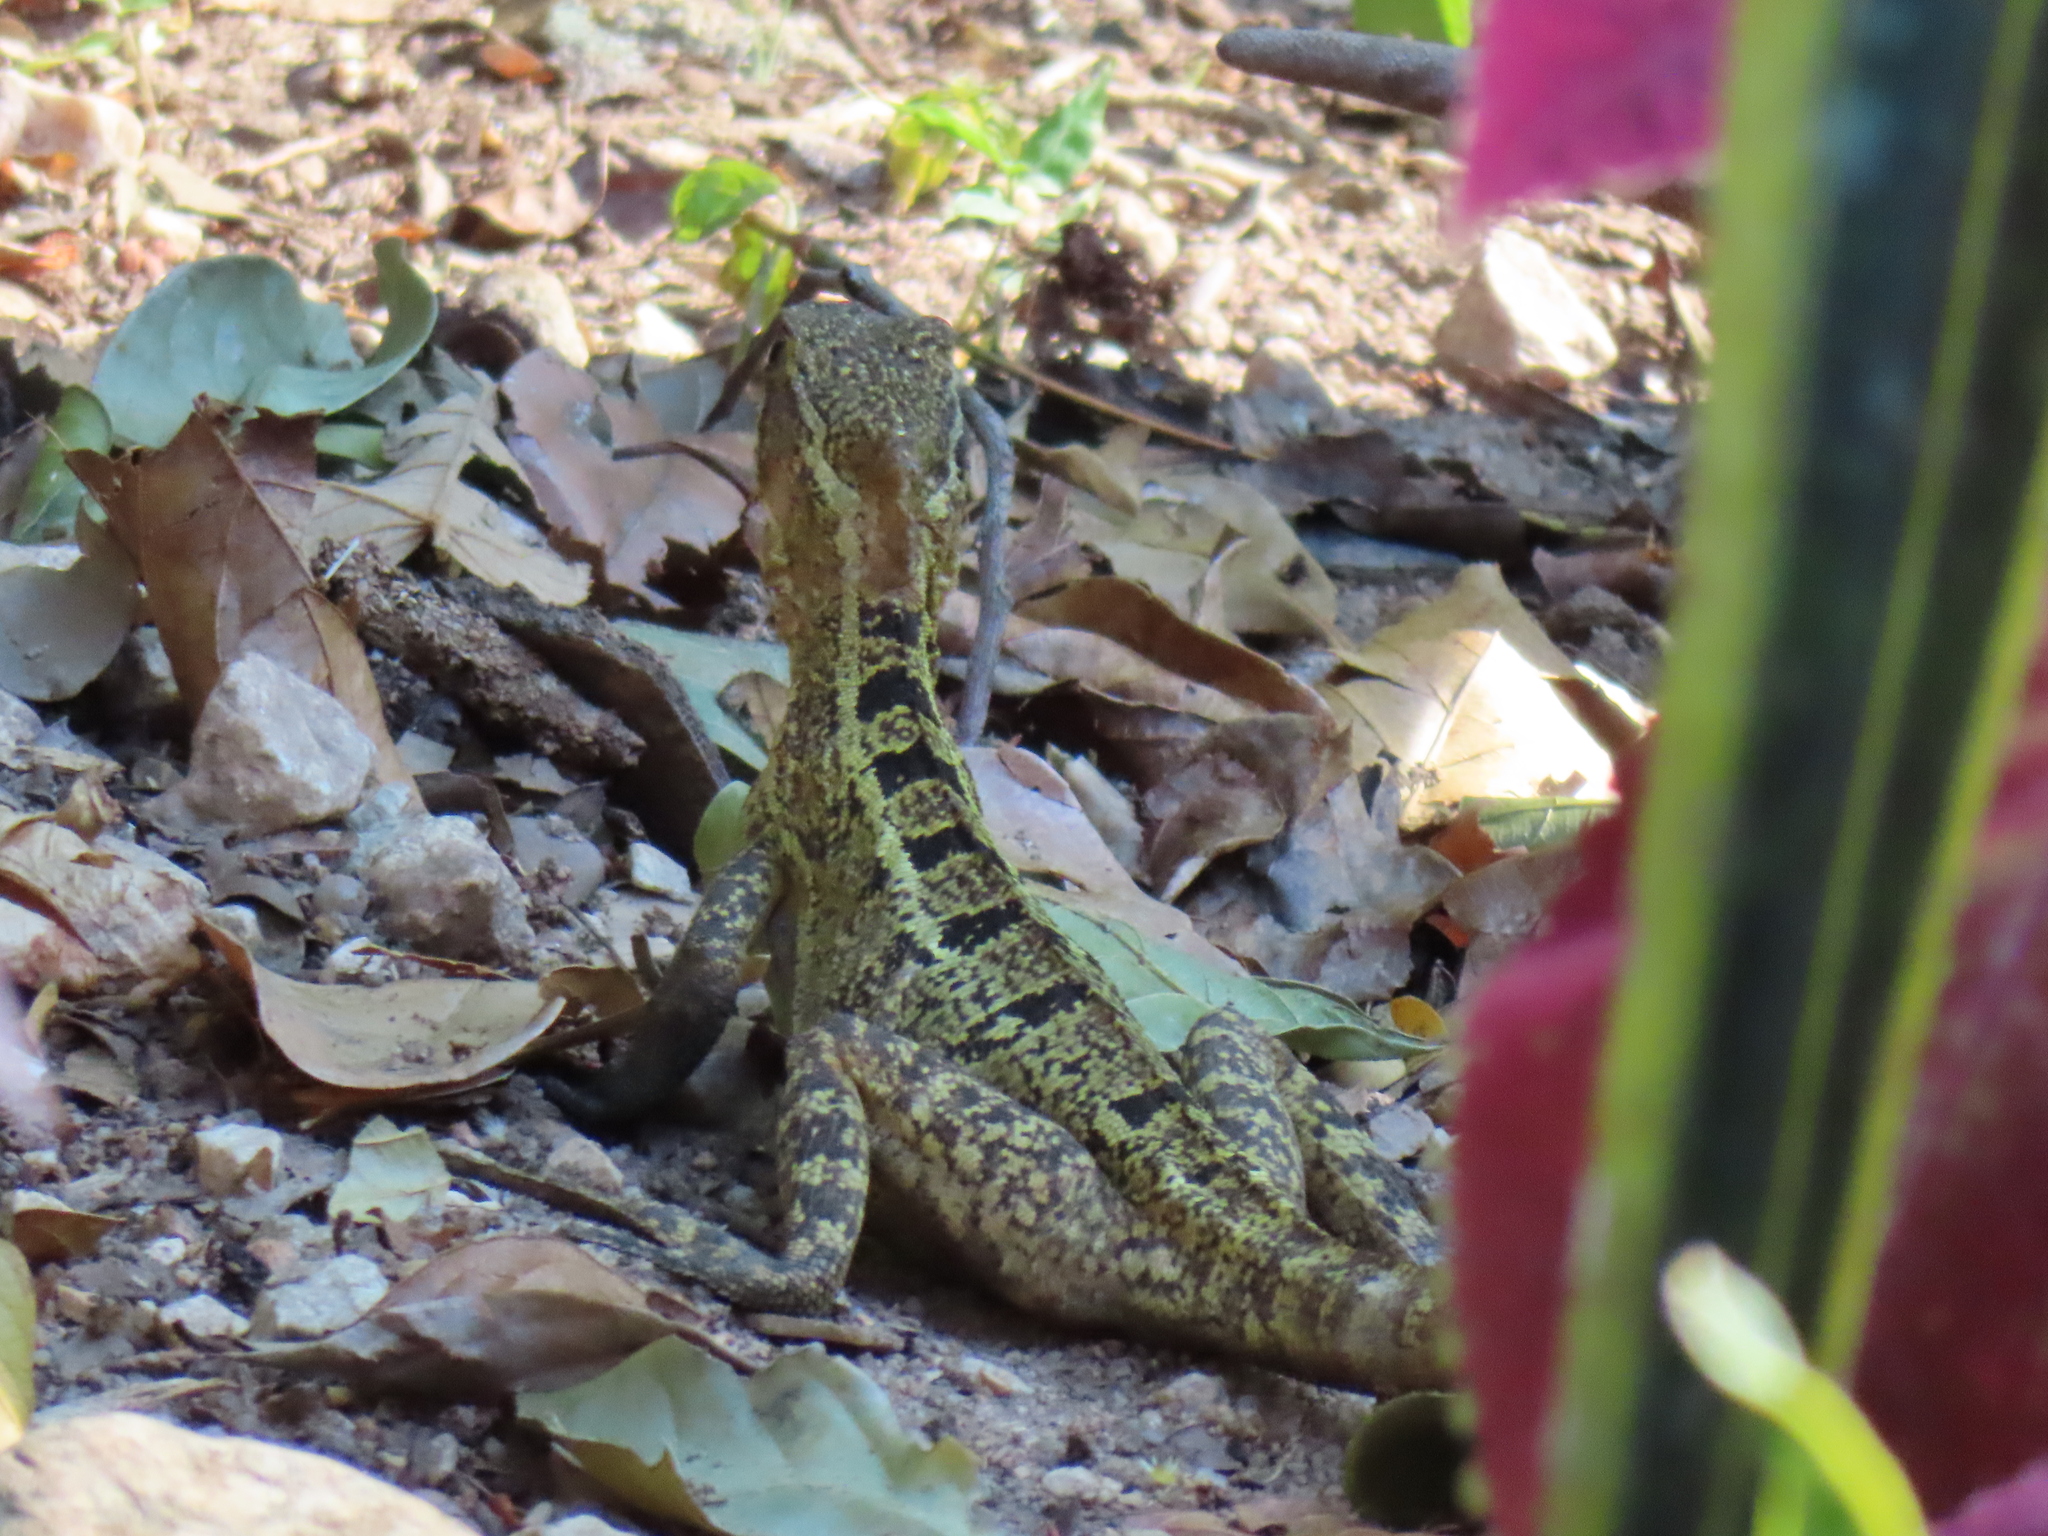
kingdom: Animalia
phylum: Chordata
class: Squamata
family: Corytophanidae
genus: Basiliscus
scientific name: Basiliscus vittatus
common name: Brown basilisk
